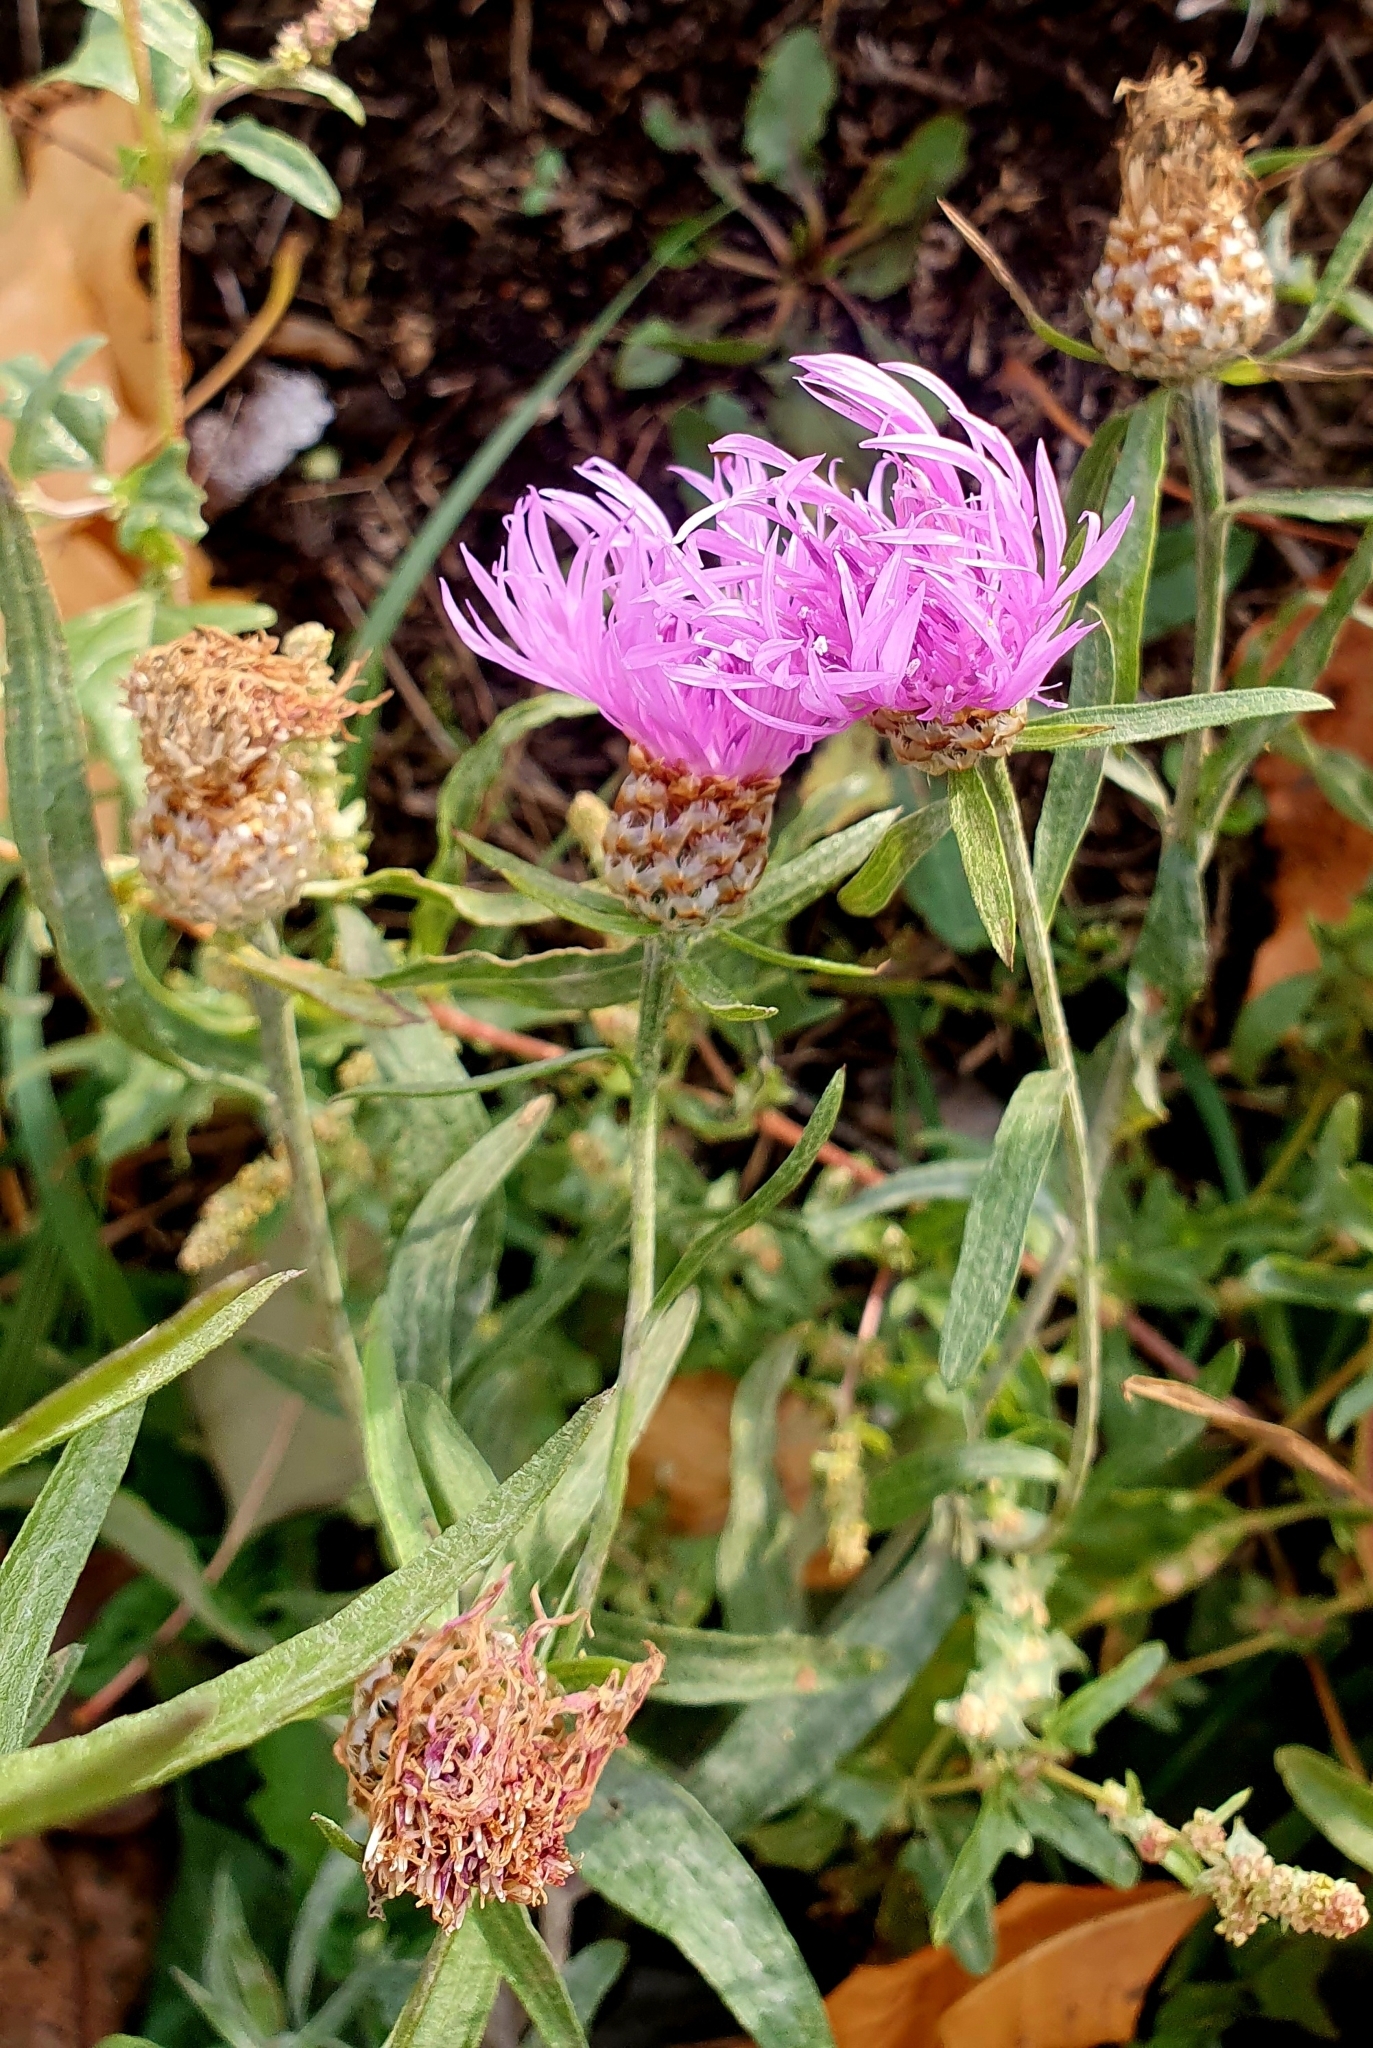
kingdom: Plantae
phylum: Tracheophyta
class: Magnoliopsida
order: Asterales
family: Asteraceae
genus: Centaurea
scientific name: Centaurea jacea
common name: Brown knapweed
